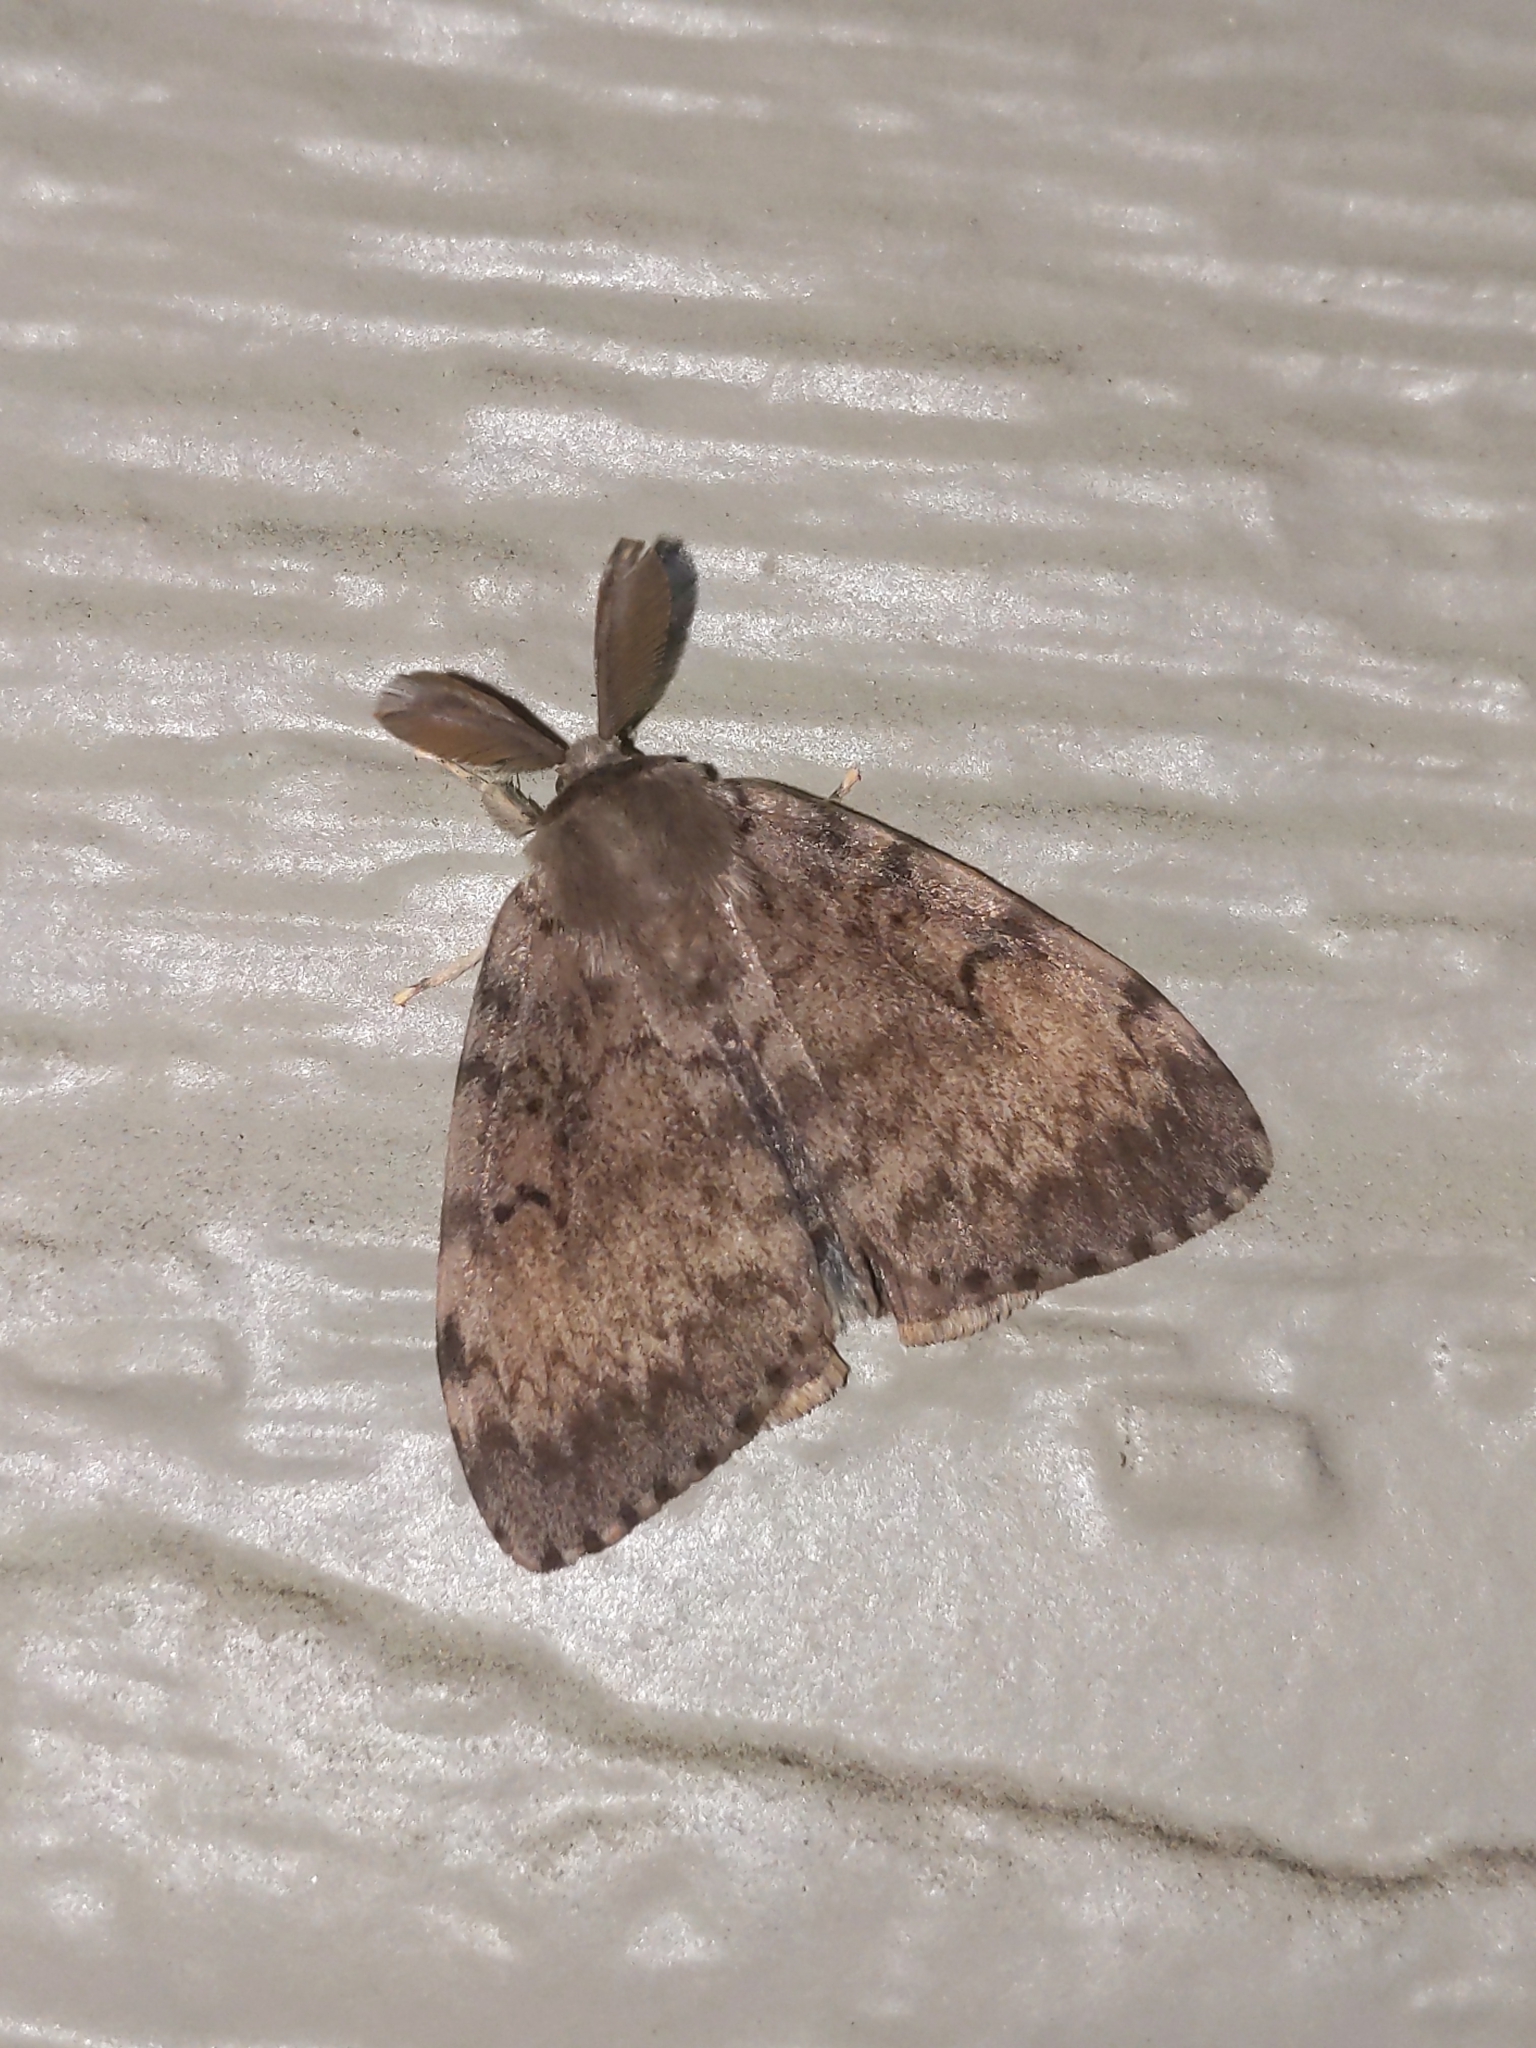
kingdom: Animalia
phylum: Arthropoda
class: Insecta
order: Lepidoptera
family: Erebidae
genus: Lymantria
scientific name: Lymantria dispar
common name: Gypsy moth
